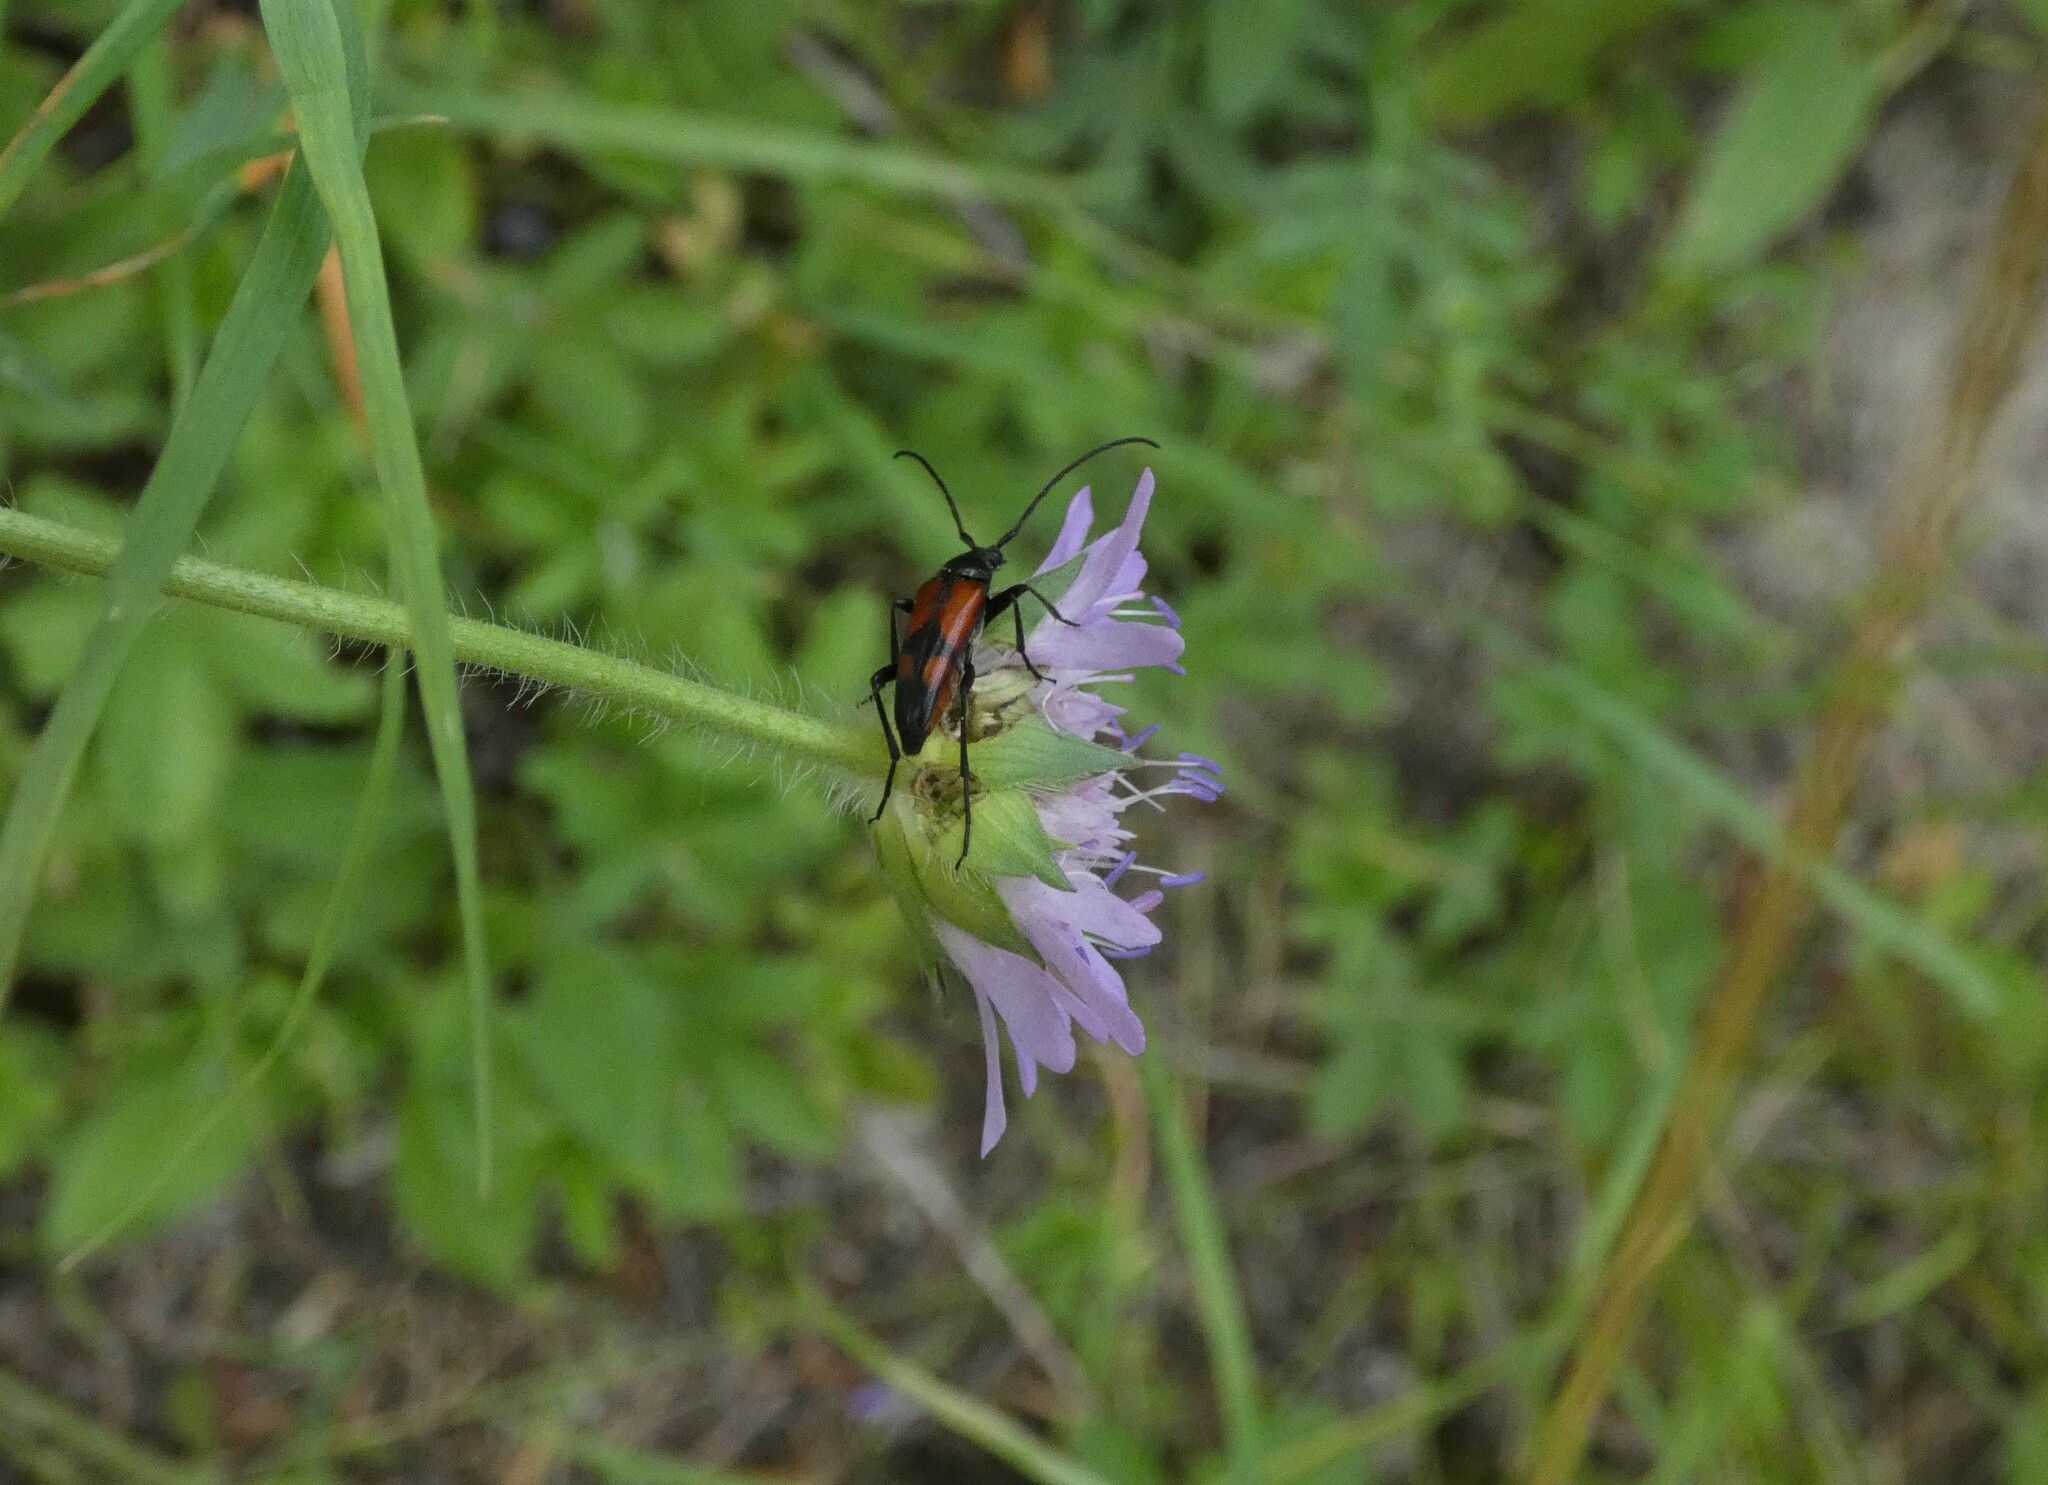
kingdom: Animalia
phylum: Arthropoda
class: Insecta
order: Coleoptera
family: Cerambycidae
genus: Stenurella
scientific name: Stenurella bifasciata
